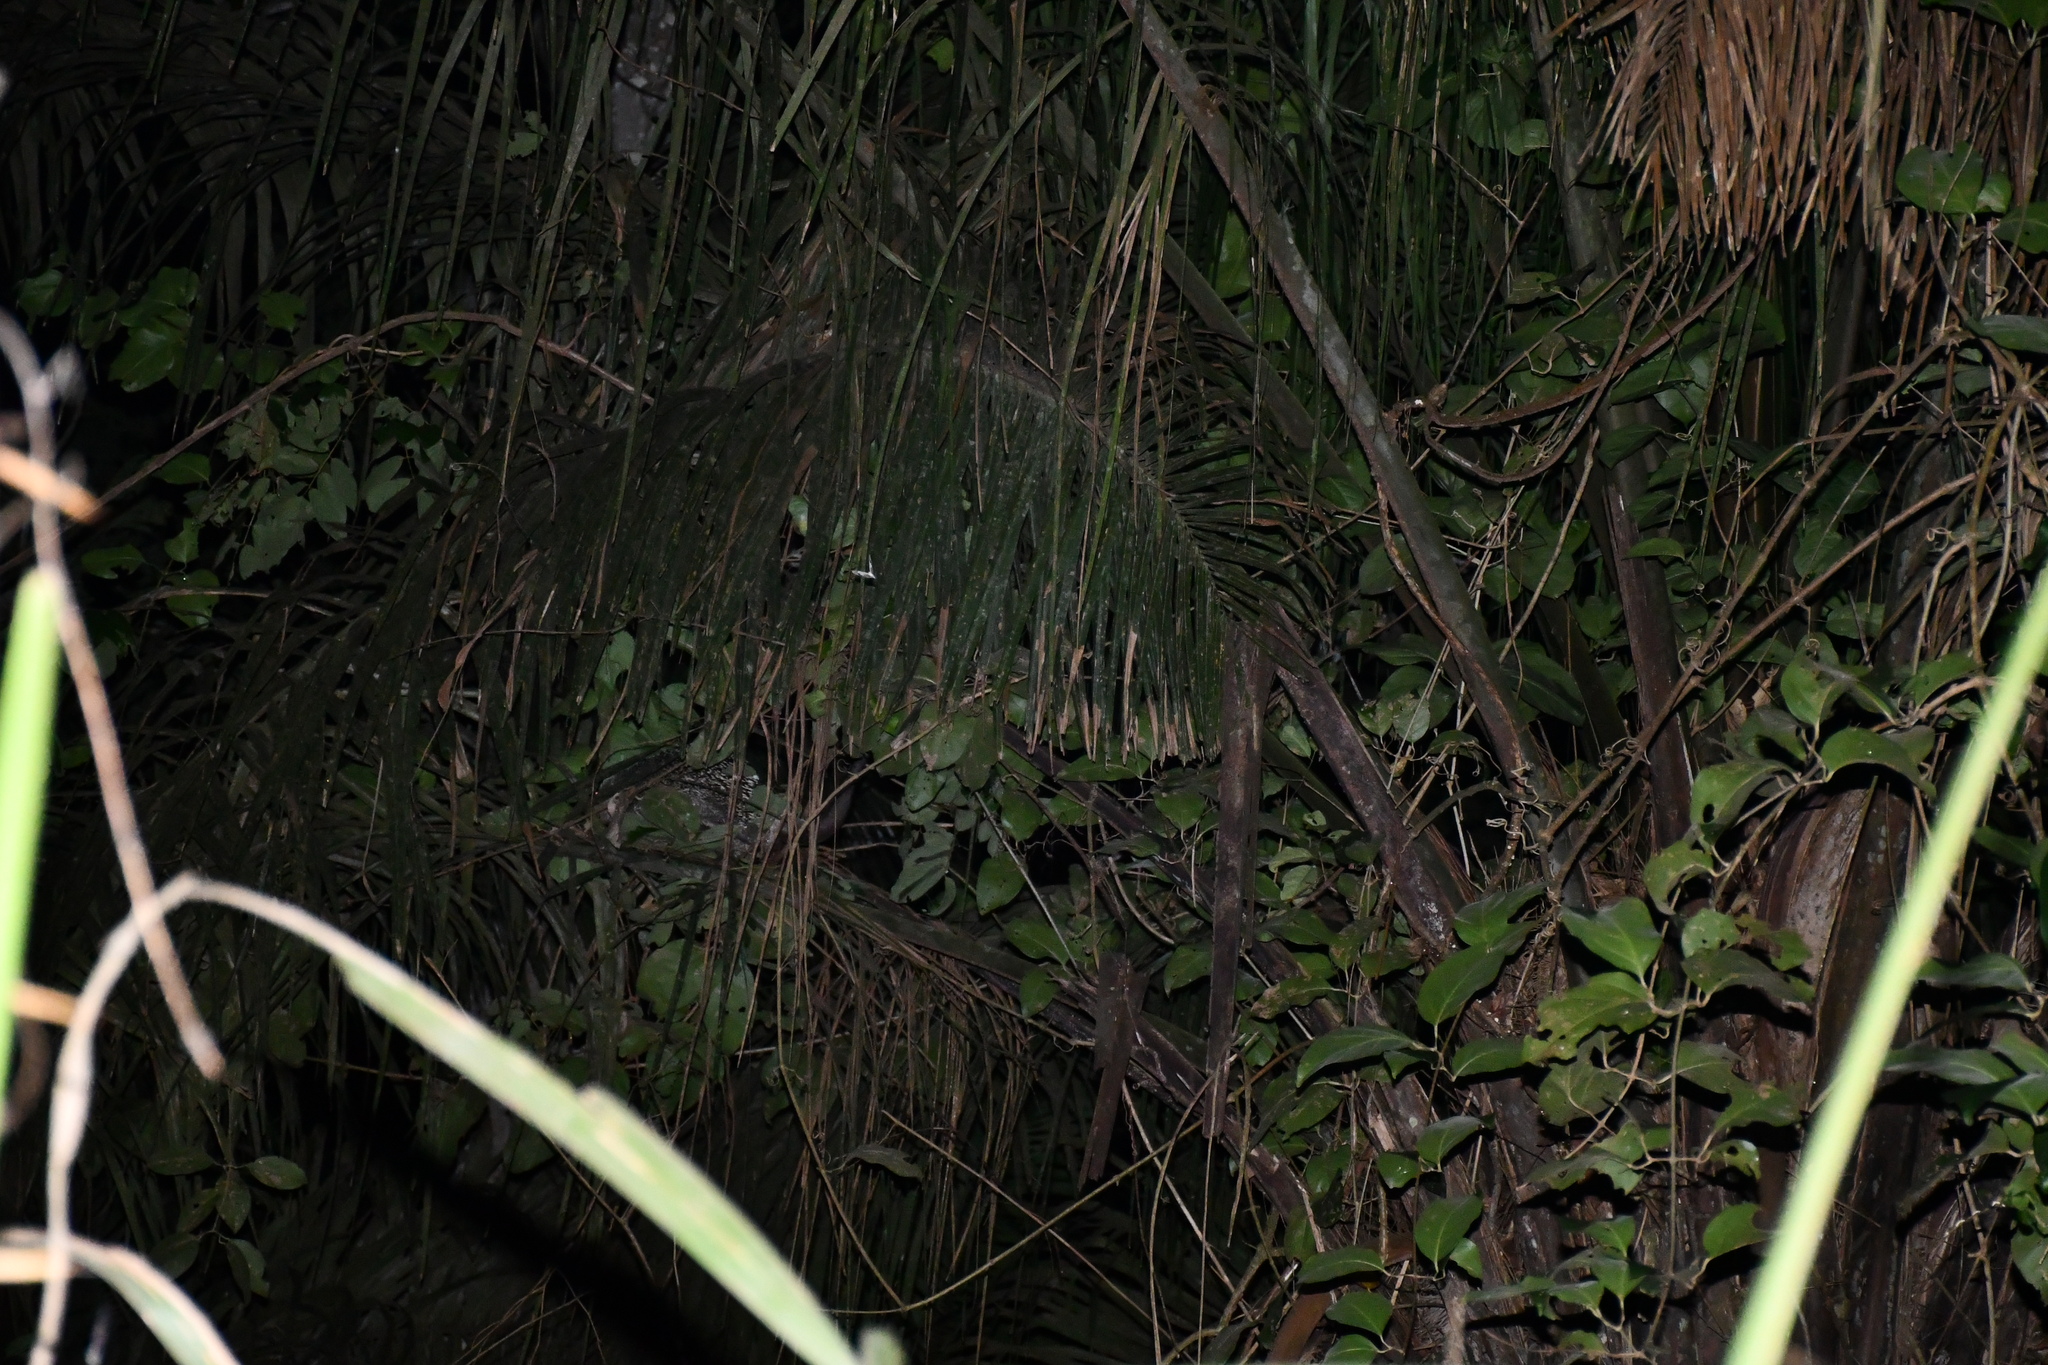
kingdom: Animalia
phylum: Chordata
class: Mammalia
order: Rodentia
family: Erethizontidae
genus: Coendou
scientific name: Coendou longicaudatus
